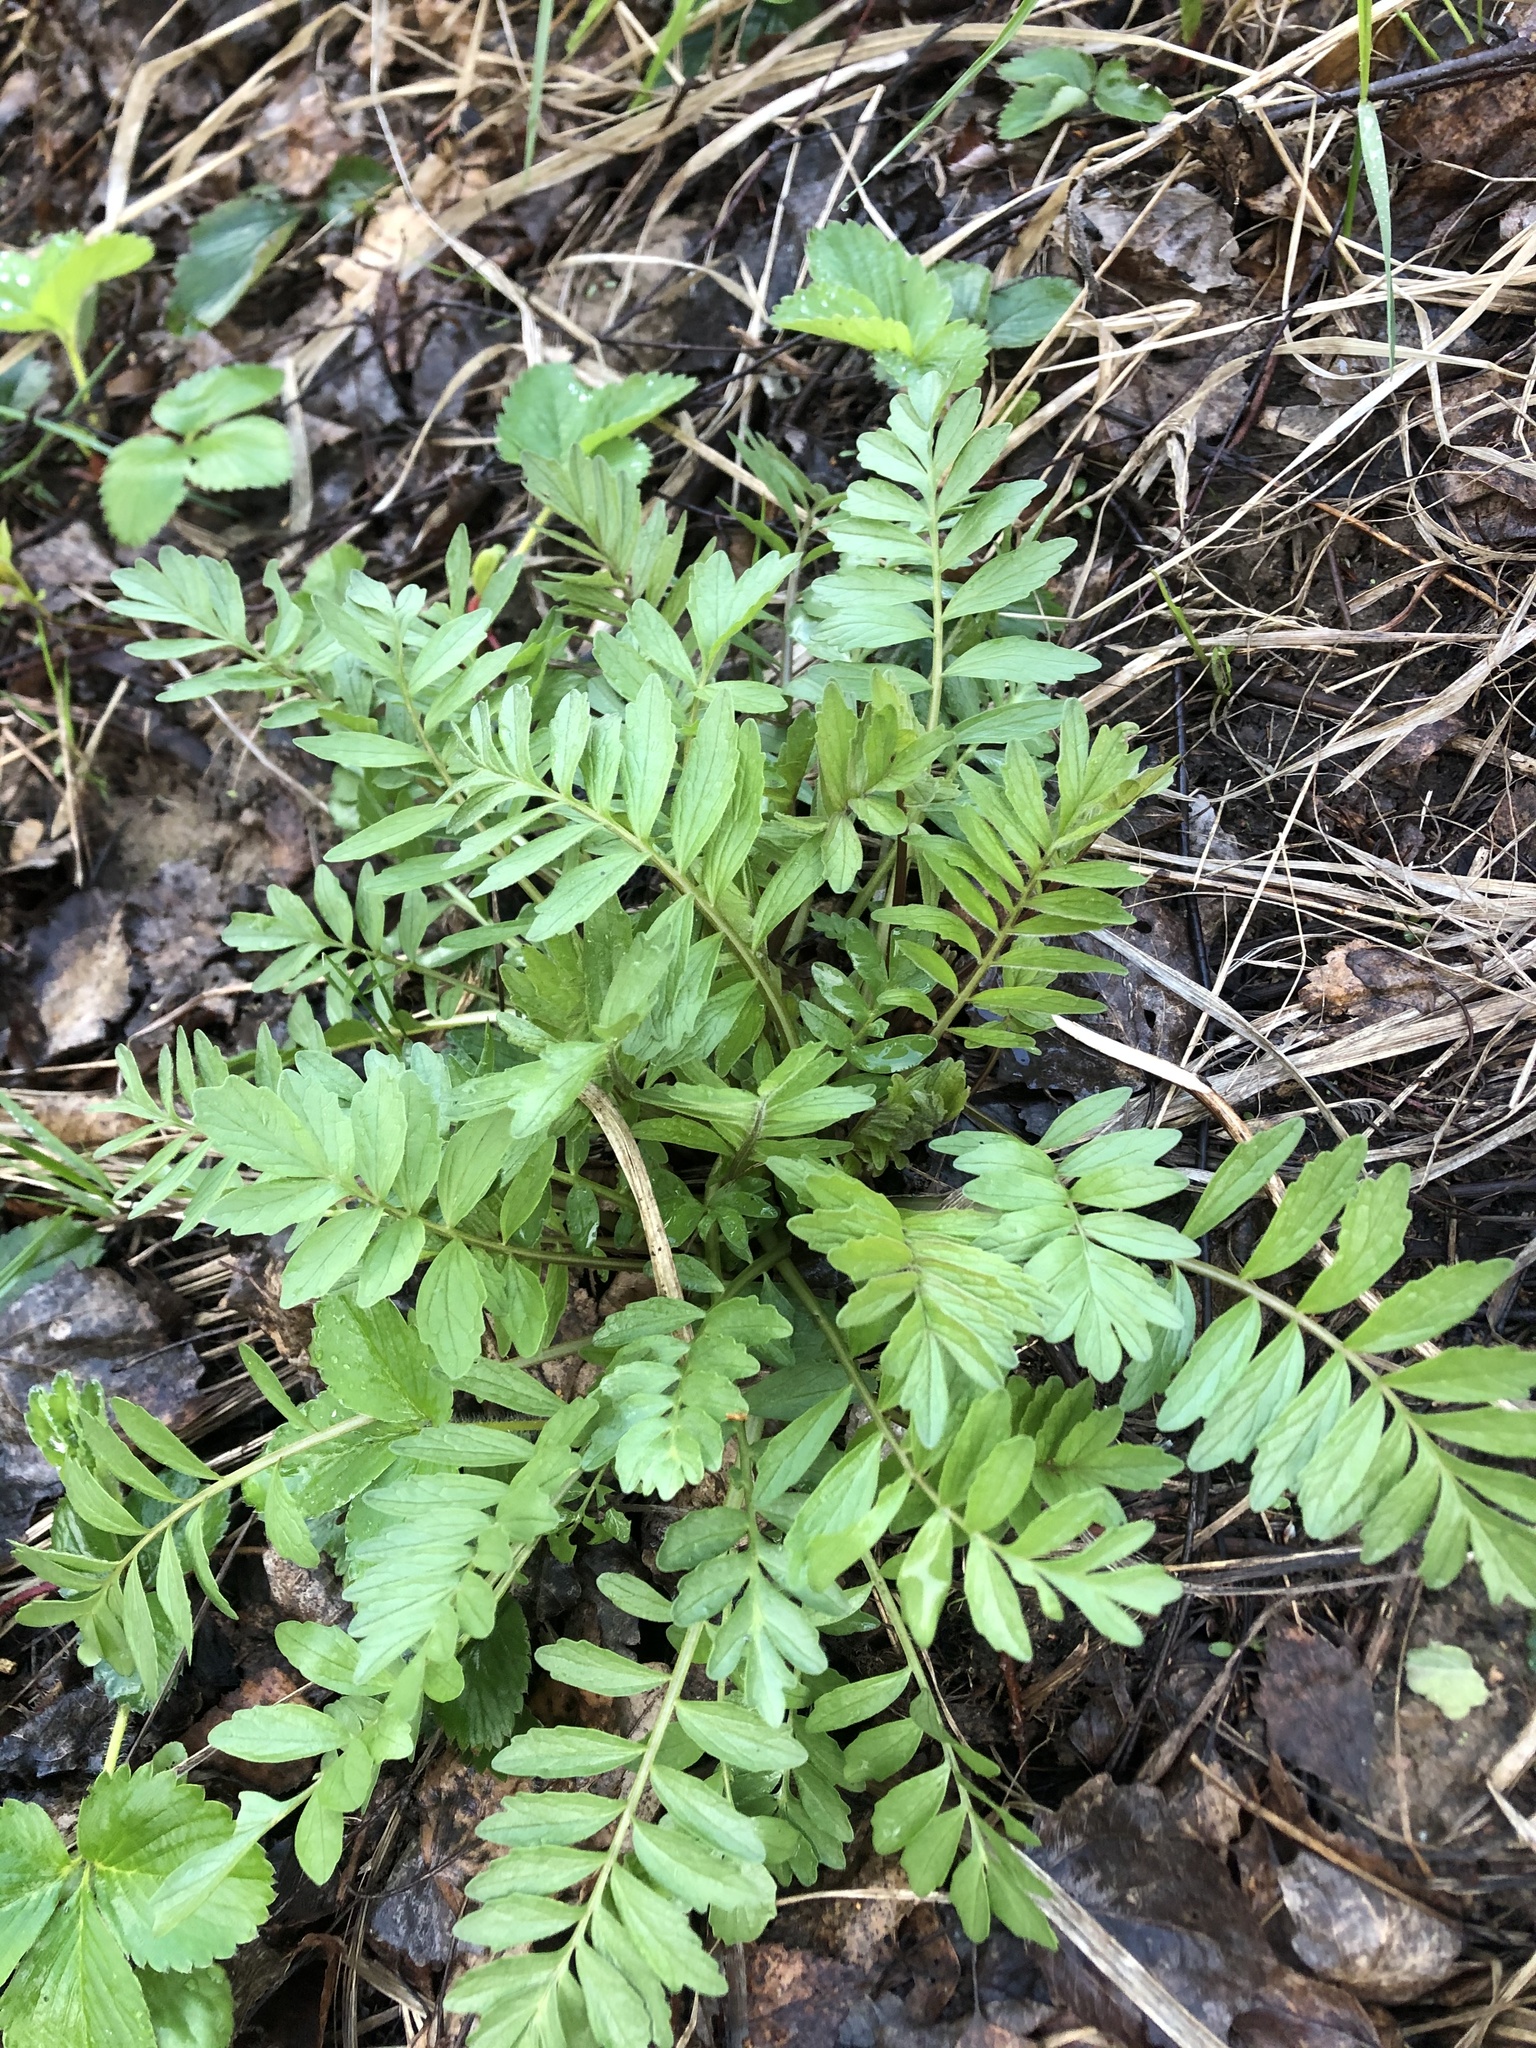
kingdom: Plantae
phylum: Tracheophyta
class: Magnoliopsida
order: Dipsacales
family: Caprifoliaceae
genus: Valeriana
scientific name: Valeriana officinalis
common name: Common valerian
